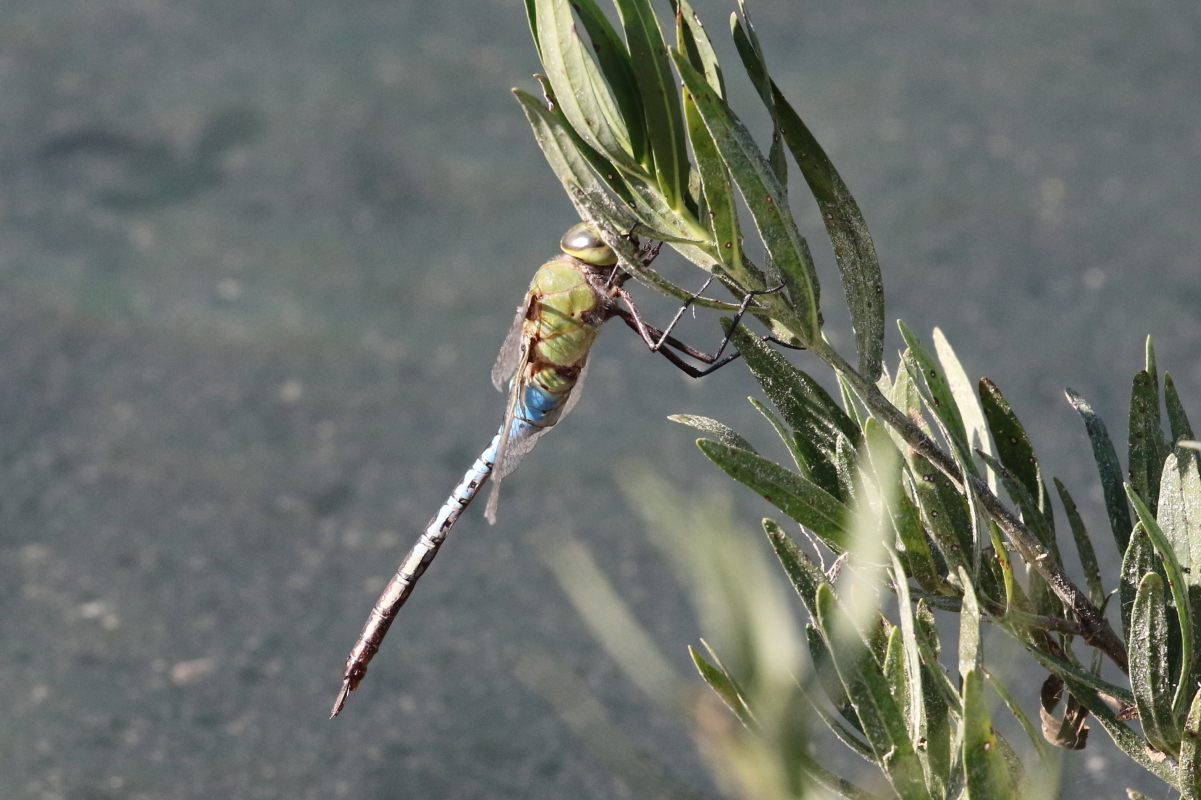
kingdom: Animalia
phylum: Arthropoda
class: Insecta
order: Odonata
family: Aeshnidae
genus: Anax
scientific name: Anax junius
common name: Common green darner
